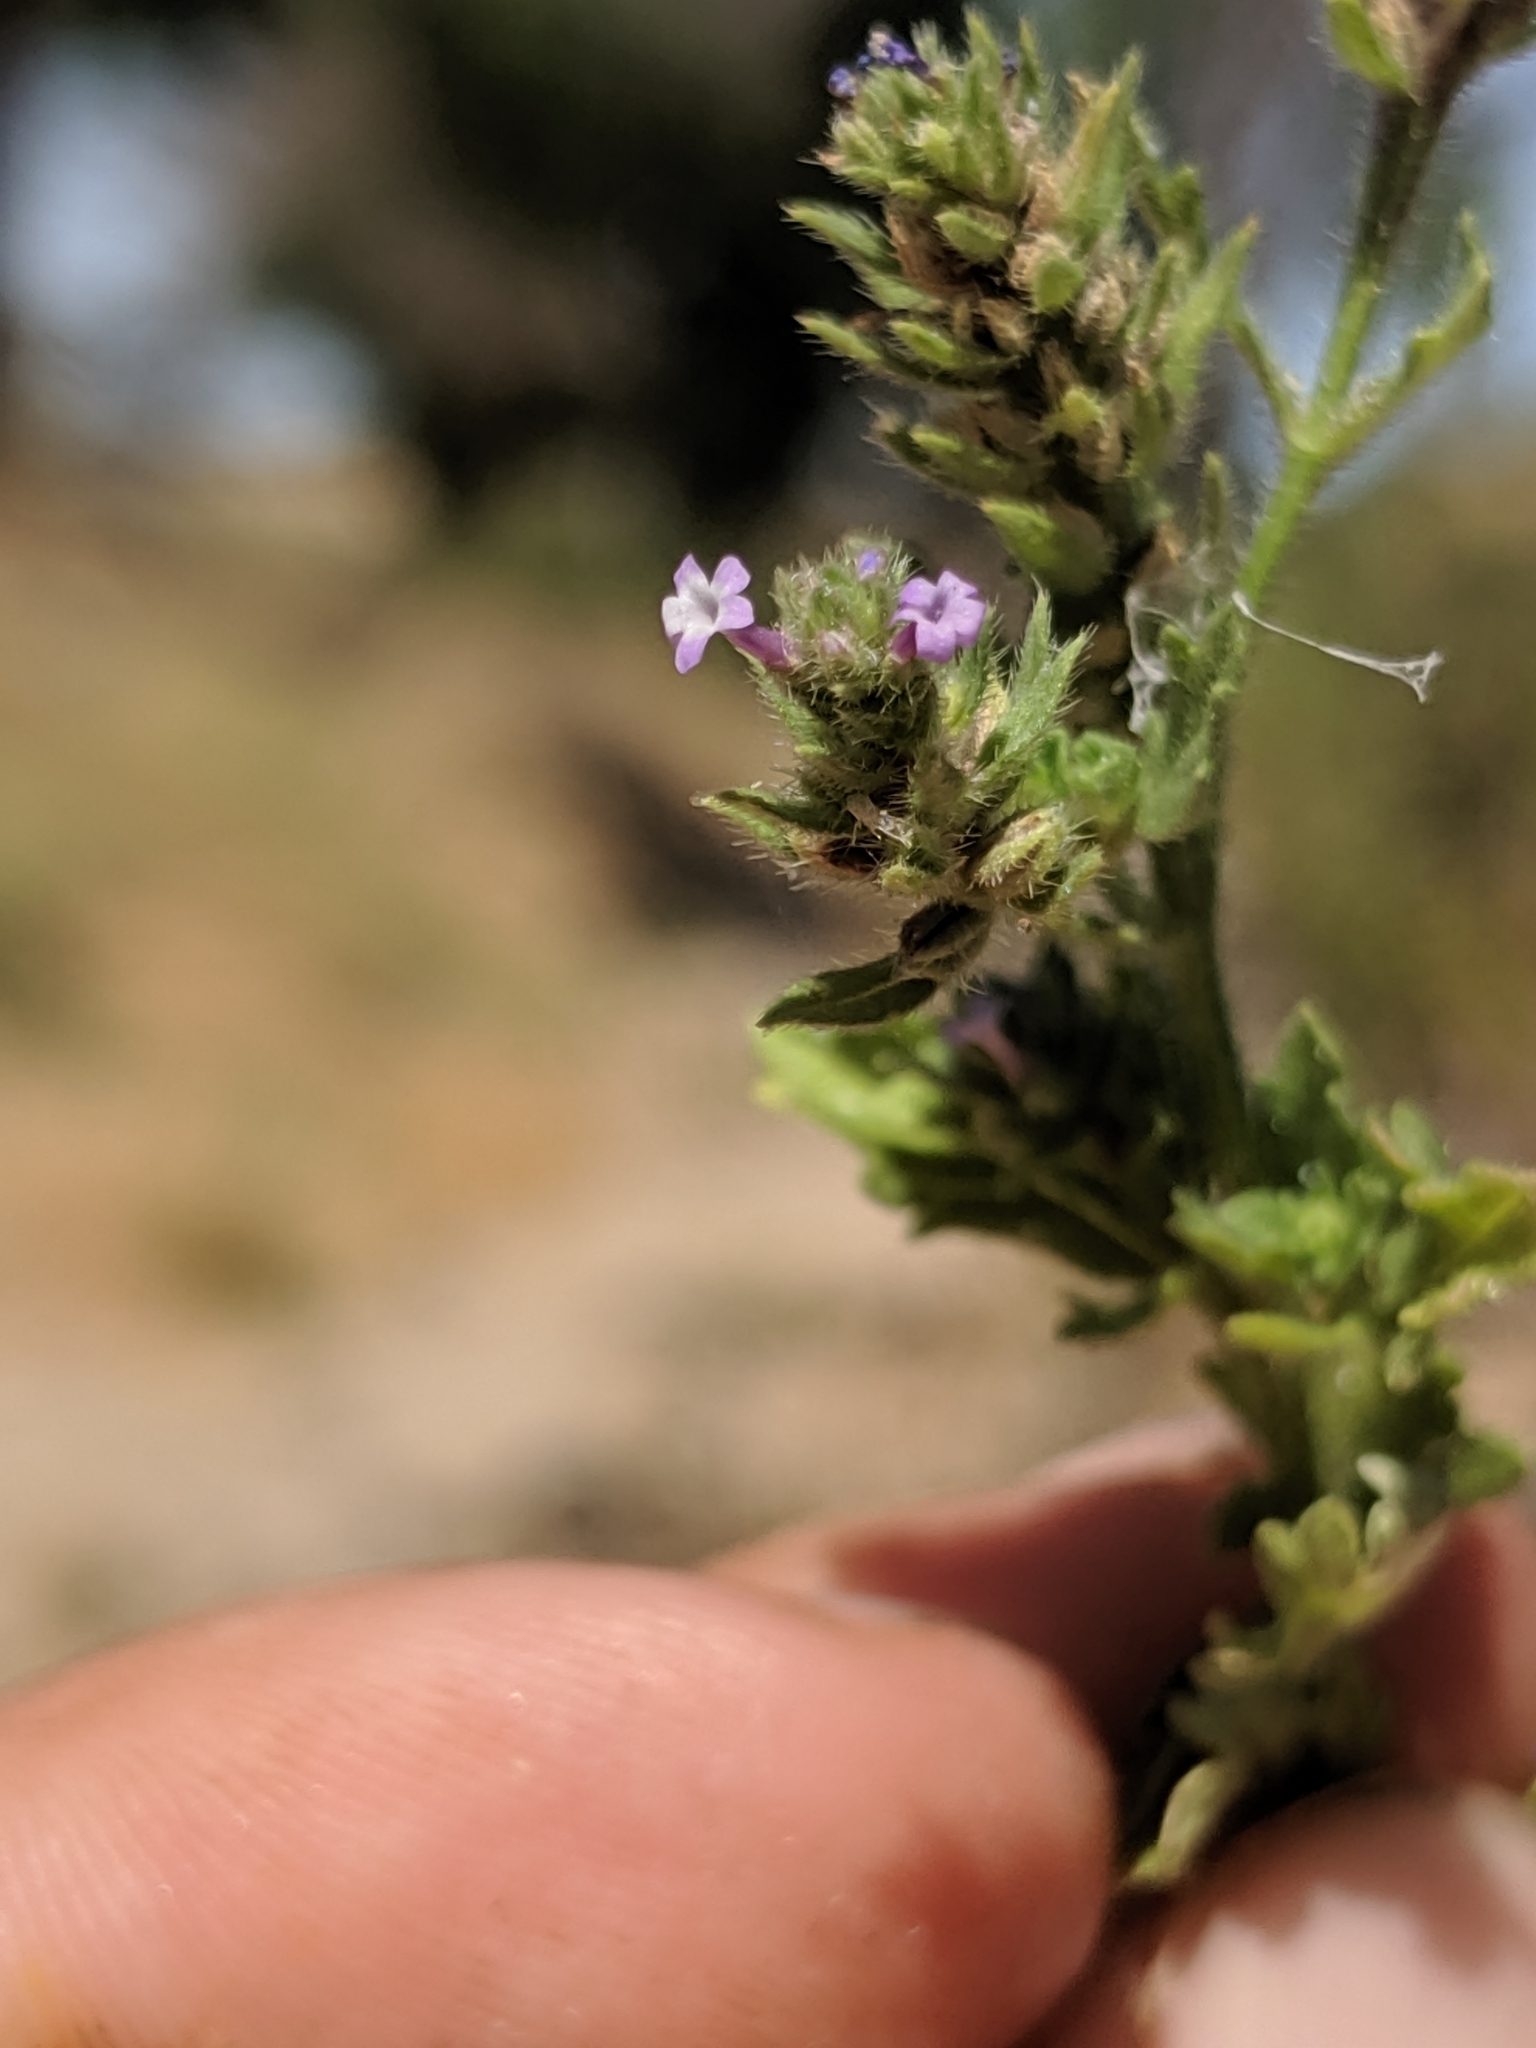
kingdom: Plantae
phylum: Tracheophyta
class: Magnoliopsida
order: Lamiales
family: Verbenaceae
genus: Verbena
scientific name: Verbena bracteata
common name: Bracted vervain
